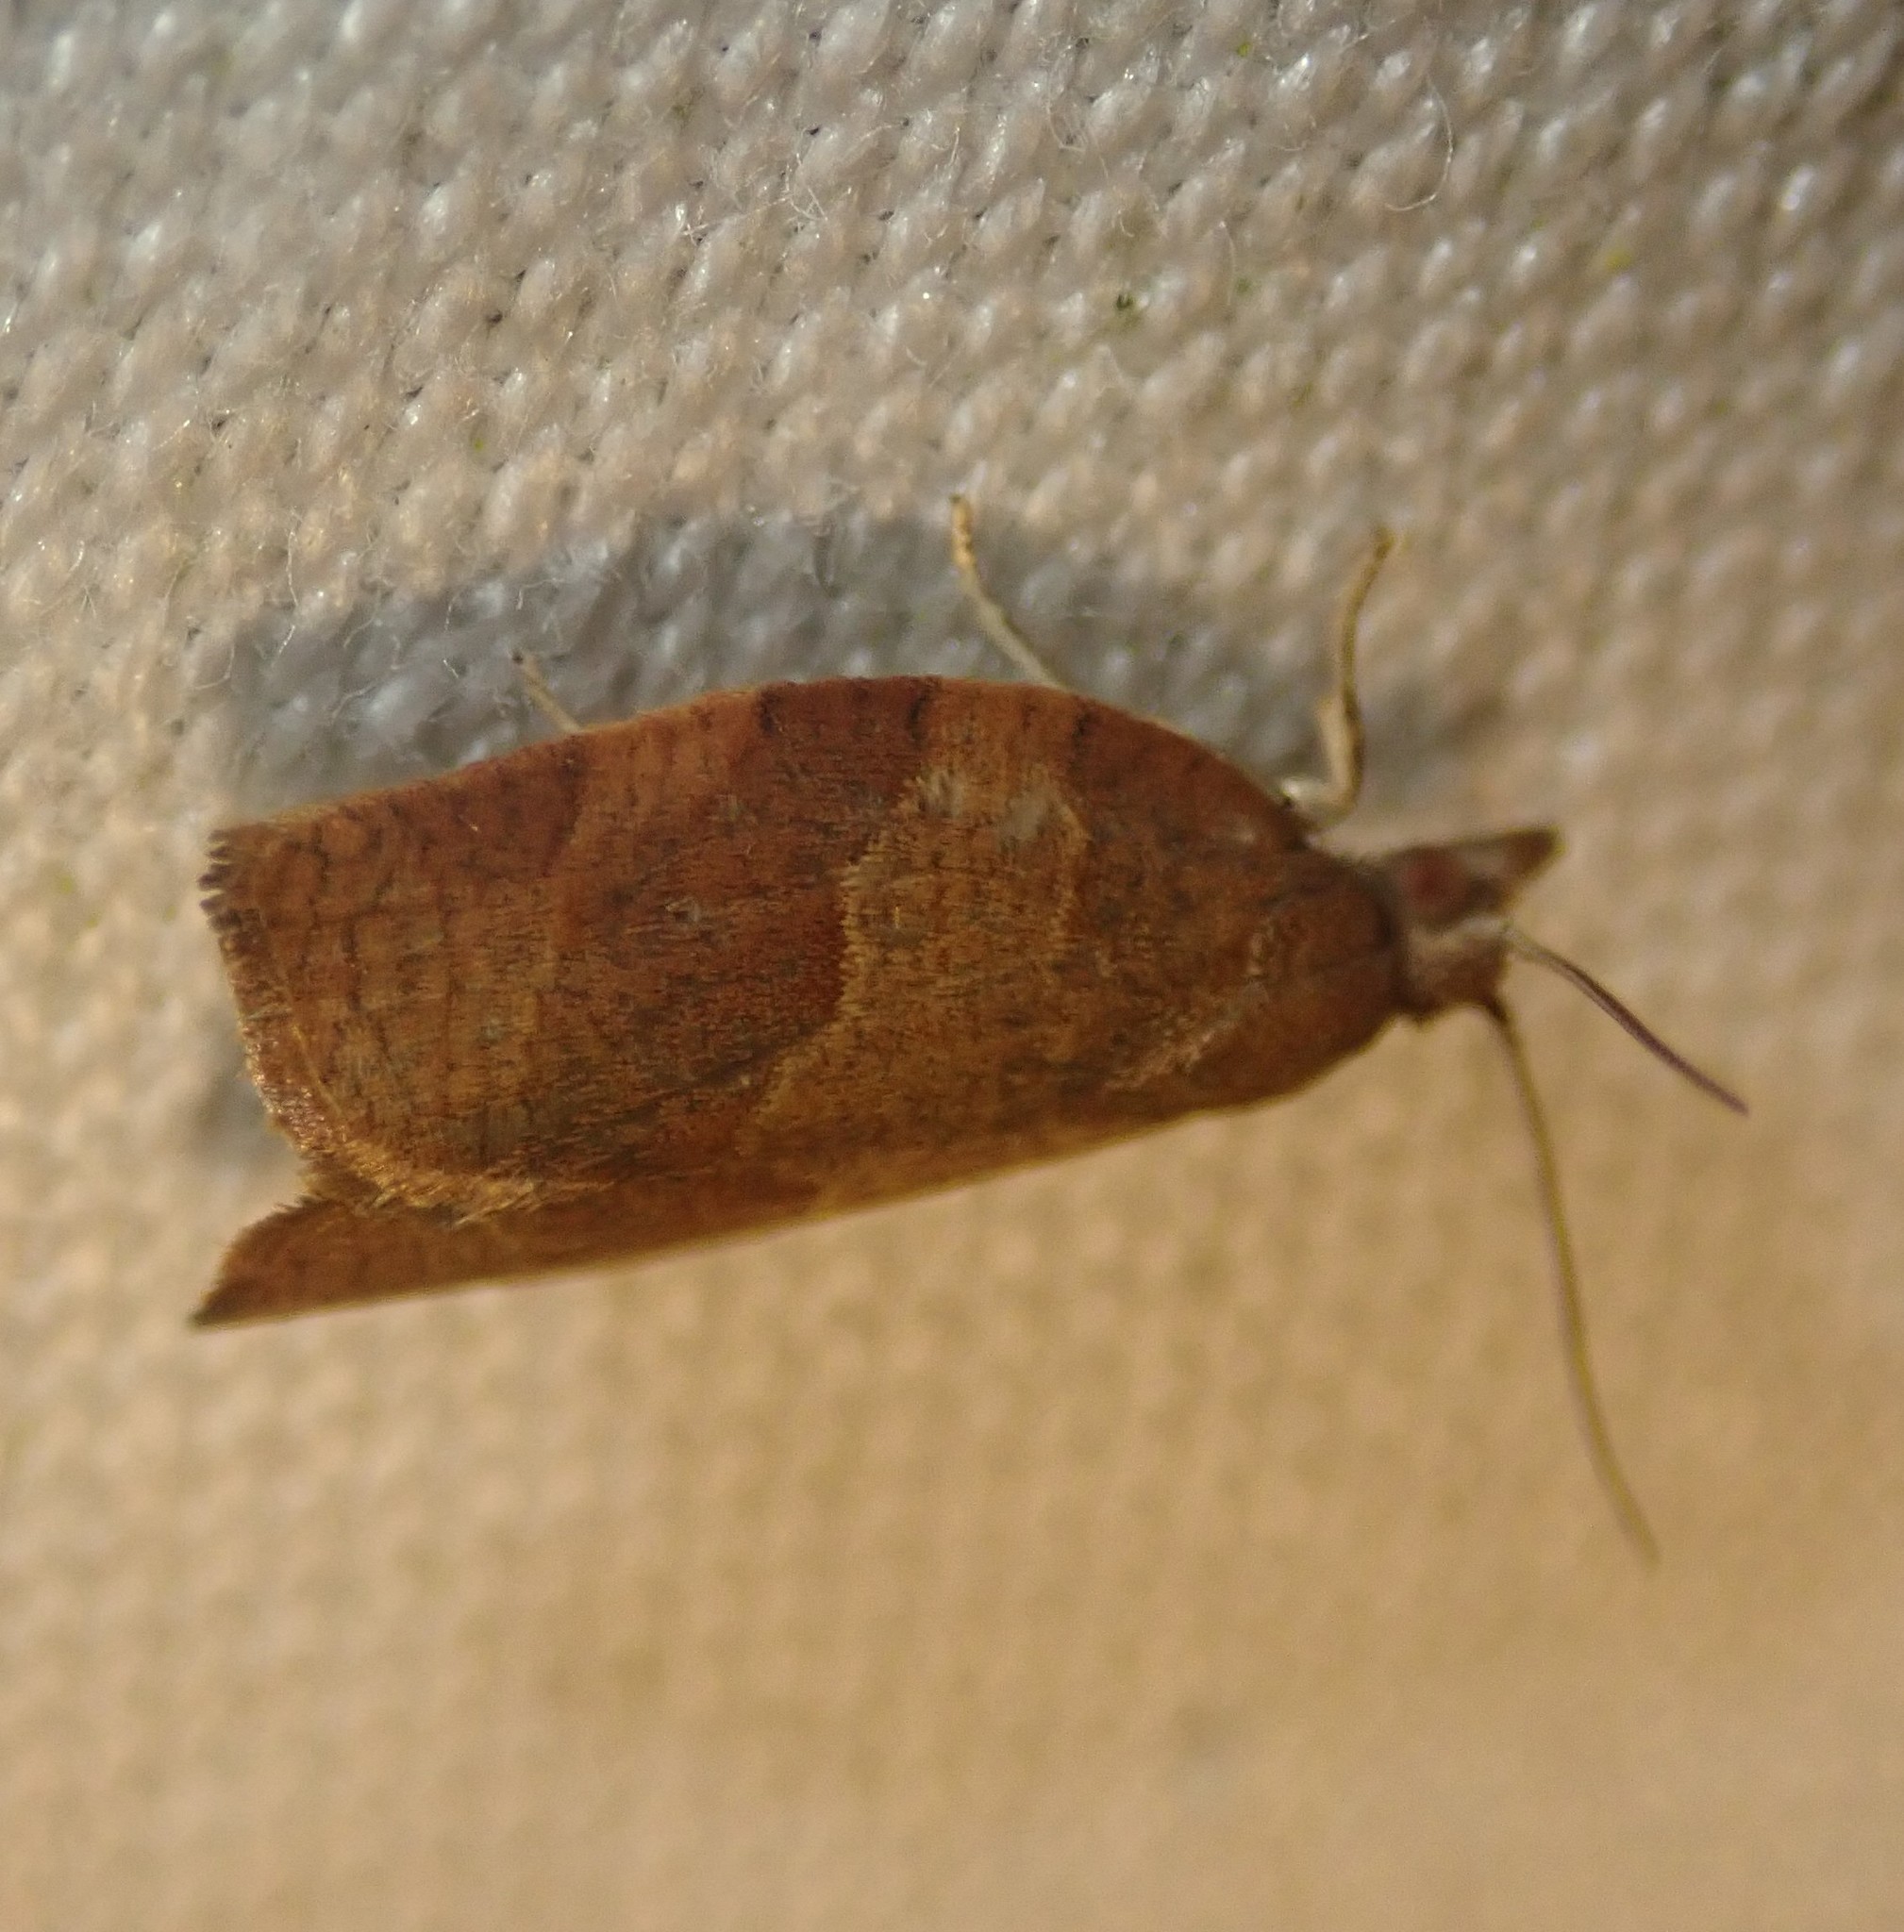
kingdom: Animalia
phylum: Arthropoda
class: Insecta
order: Lepidoptera
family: Tortricidae
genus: Pandemis
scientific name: Pandemis cerasana
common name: Barred fruit-tree tortrix
